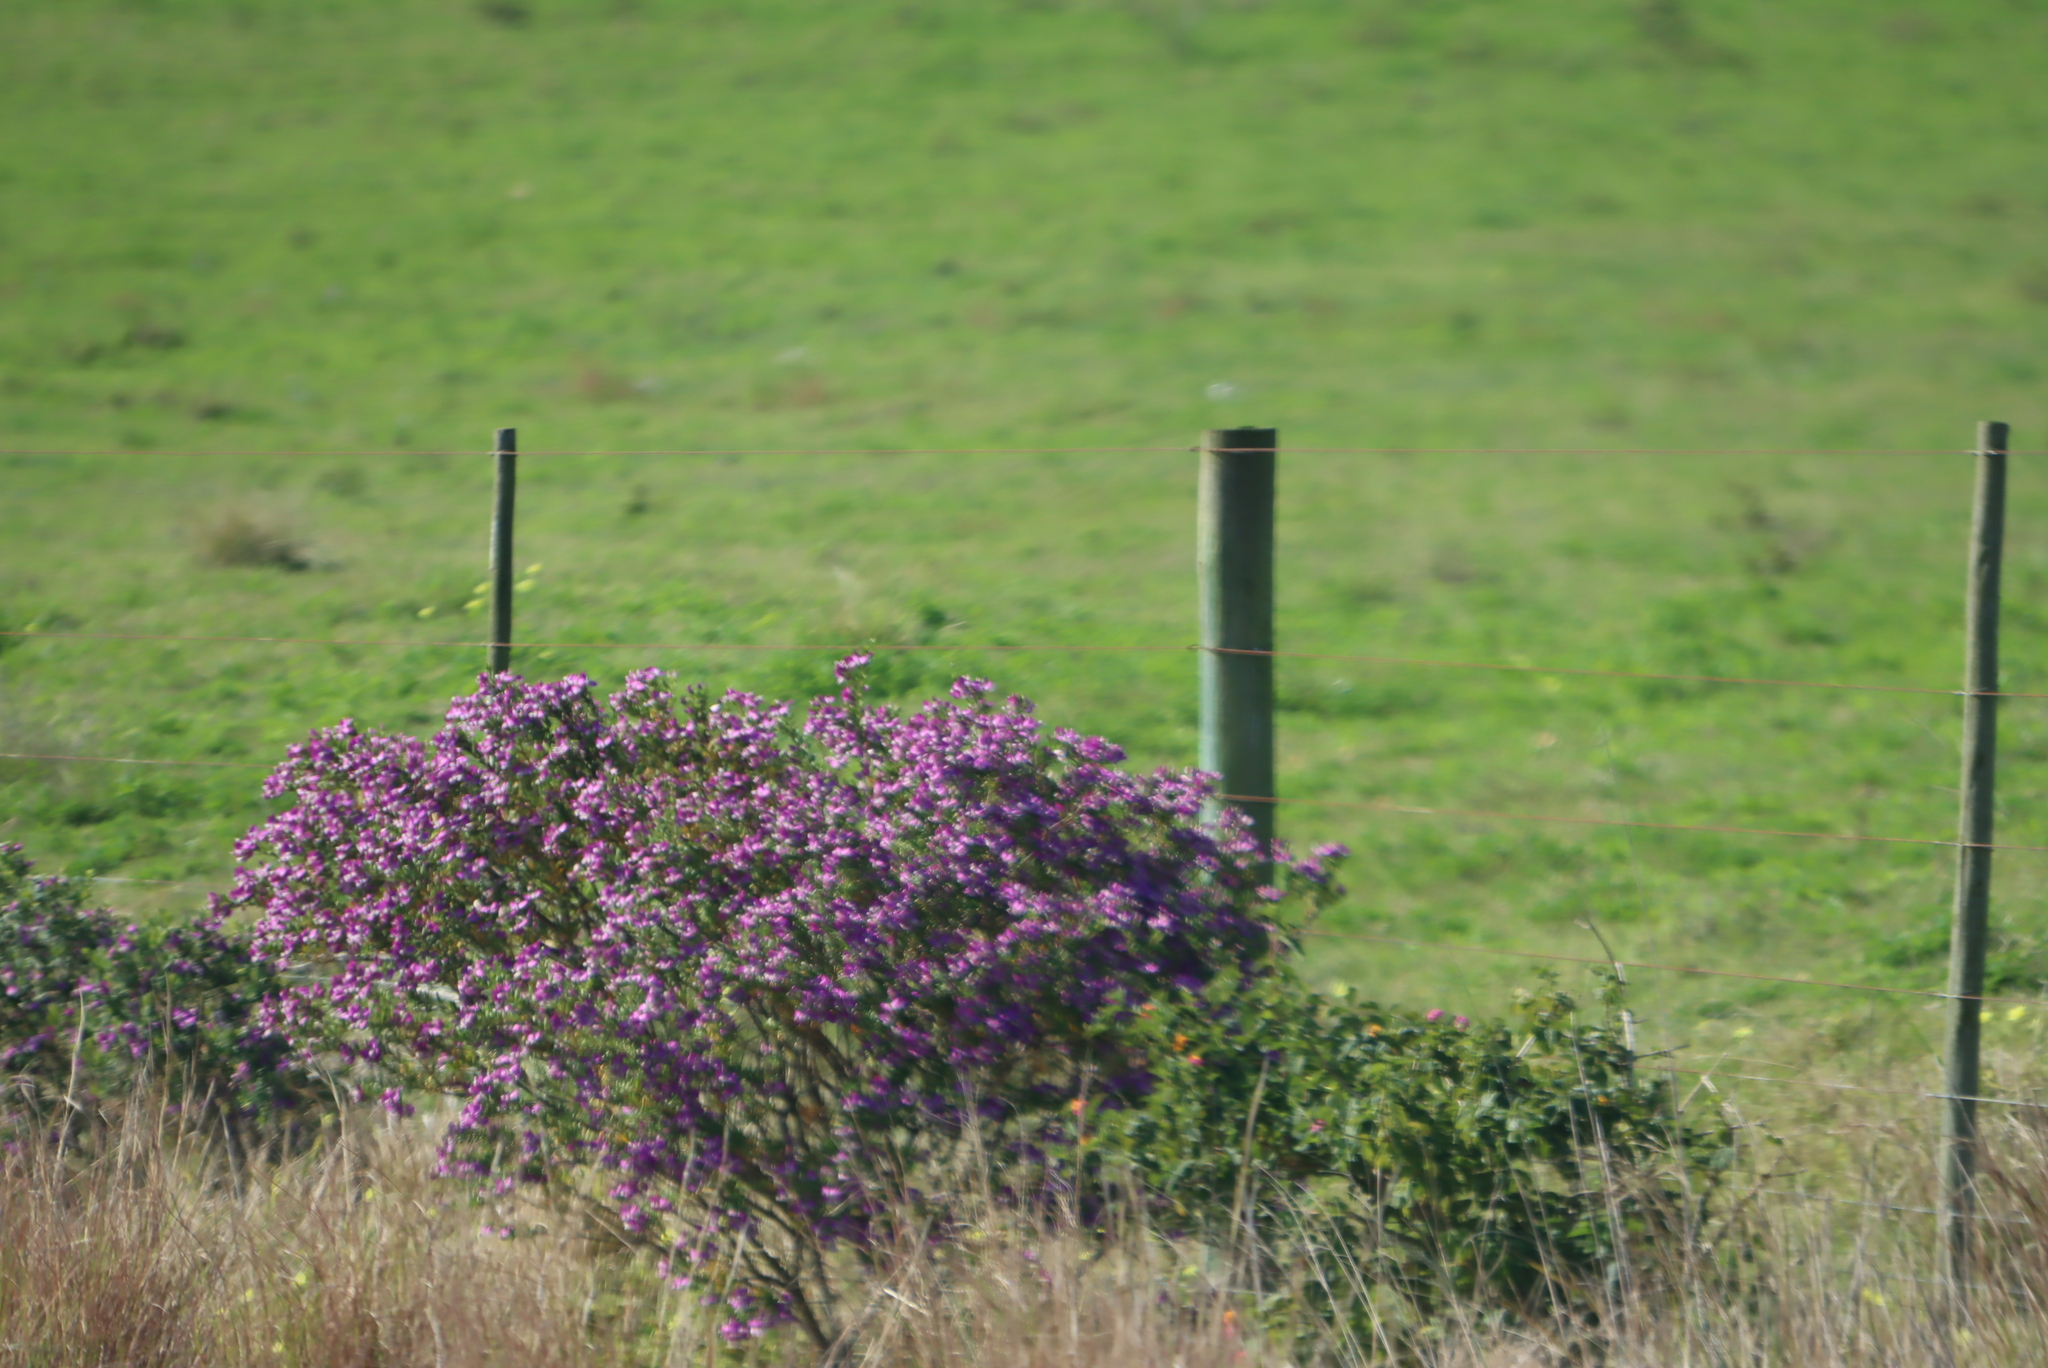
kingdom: Plantae
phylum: Tracheophyta
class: Magnoliopsida
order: Fabales
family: Polygalaceae
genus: Polygala
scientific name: Polygala myrtifolia
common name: Myrtle-leaf milkwort
